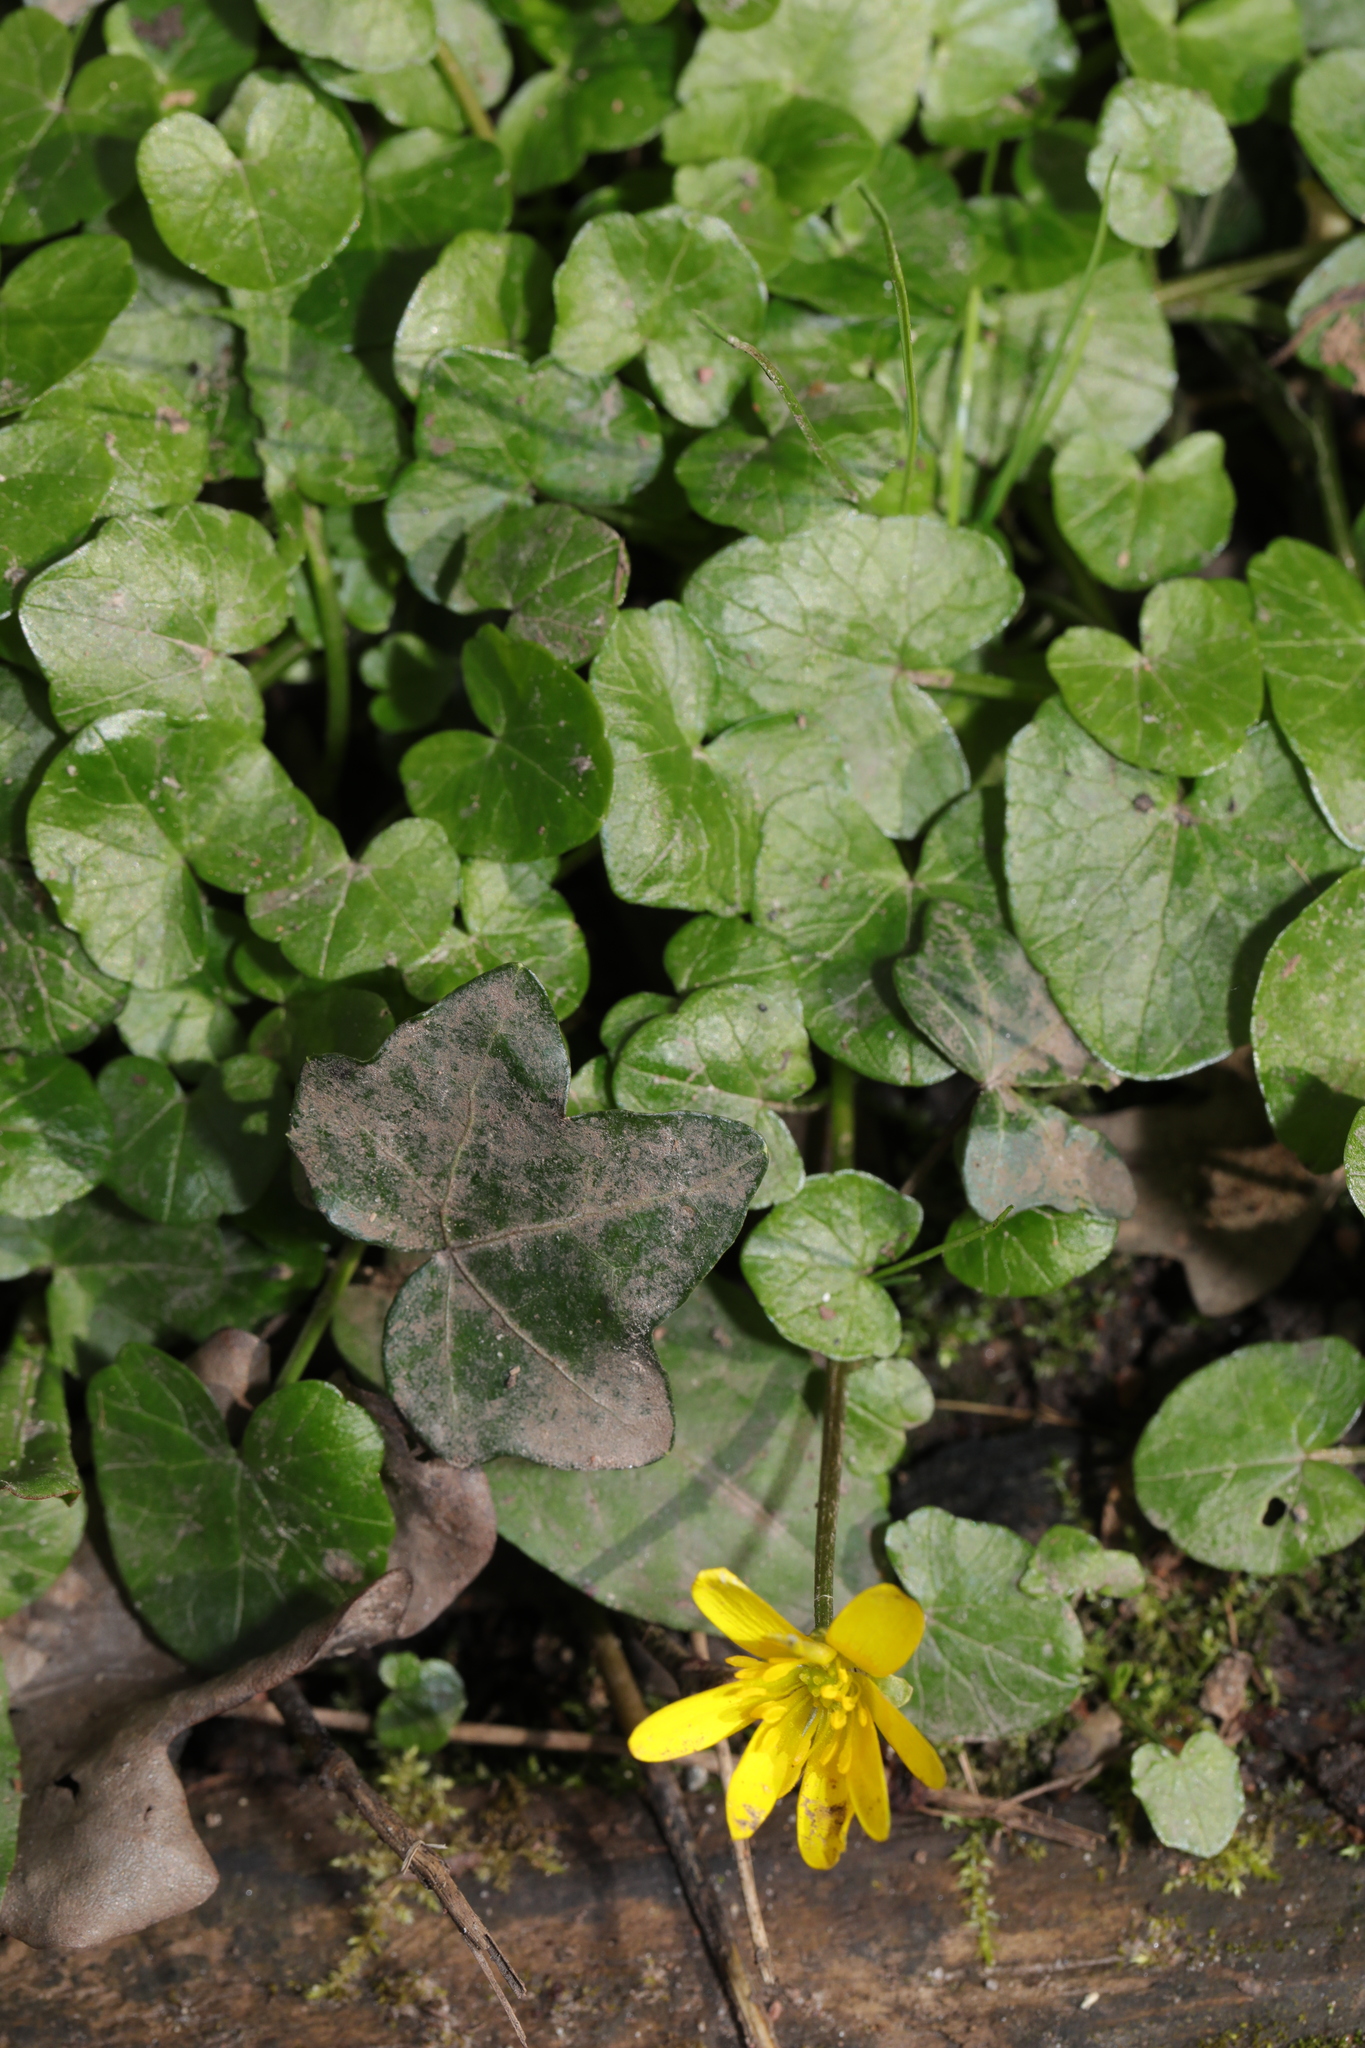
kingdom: Plantae
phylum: Tracheophyta
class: Magnoliopsida
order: Apiales
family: Araliaceae
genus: Hedera
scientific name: Hedera helix
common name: Ivy
